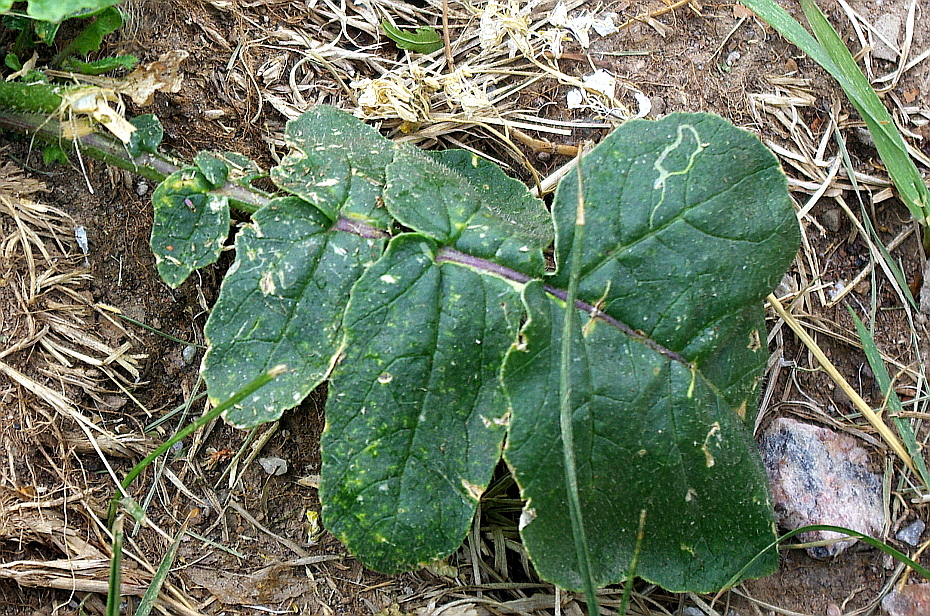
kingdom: Plantae
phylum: Tracheophyta
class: Magnoliopsida
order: Brassicales
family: Brassicaceae
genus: Raphanus
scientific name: Raphanus raphanistrum
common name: Wild radish
